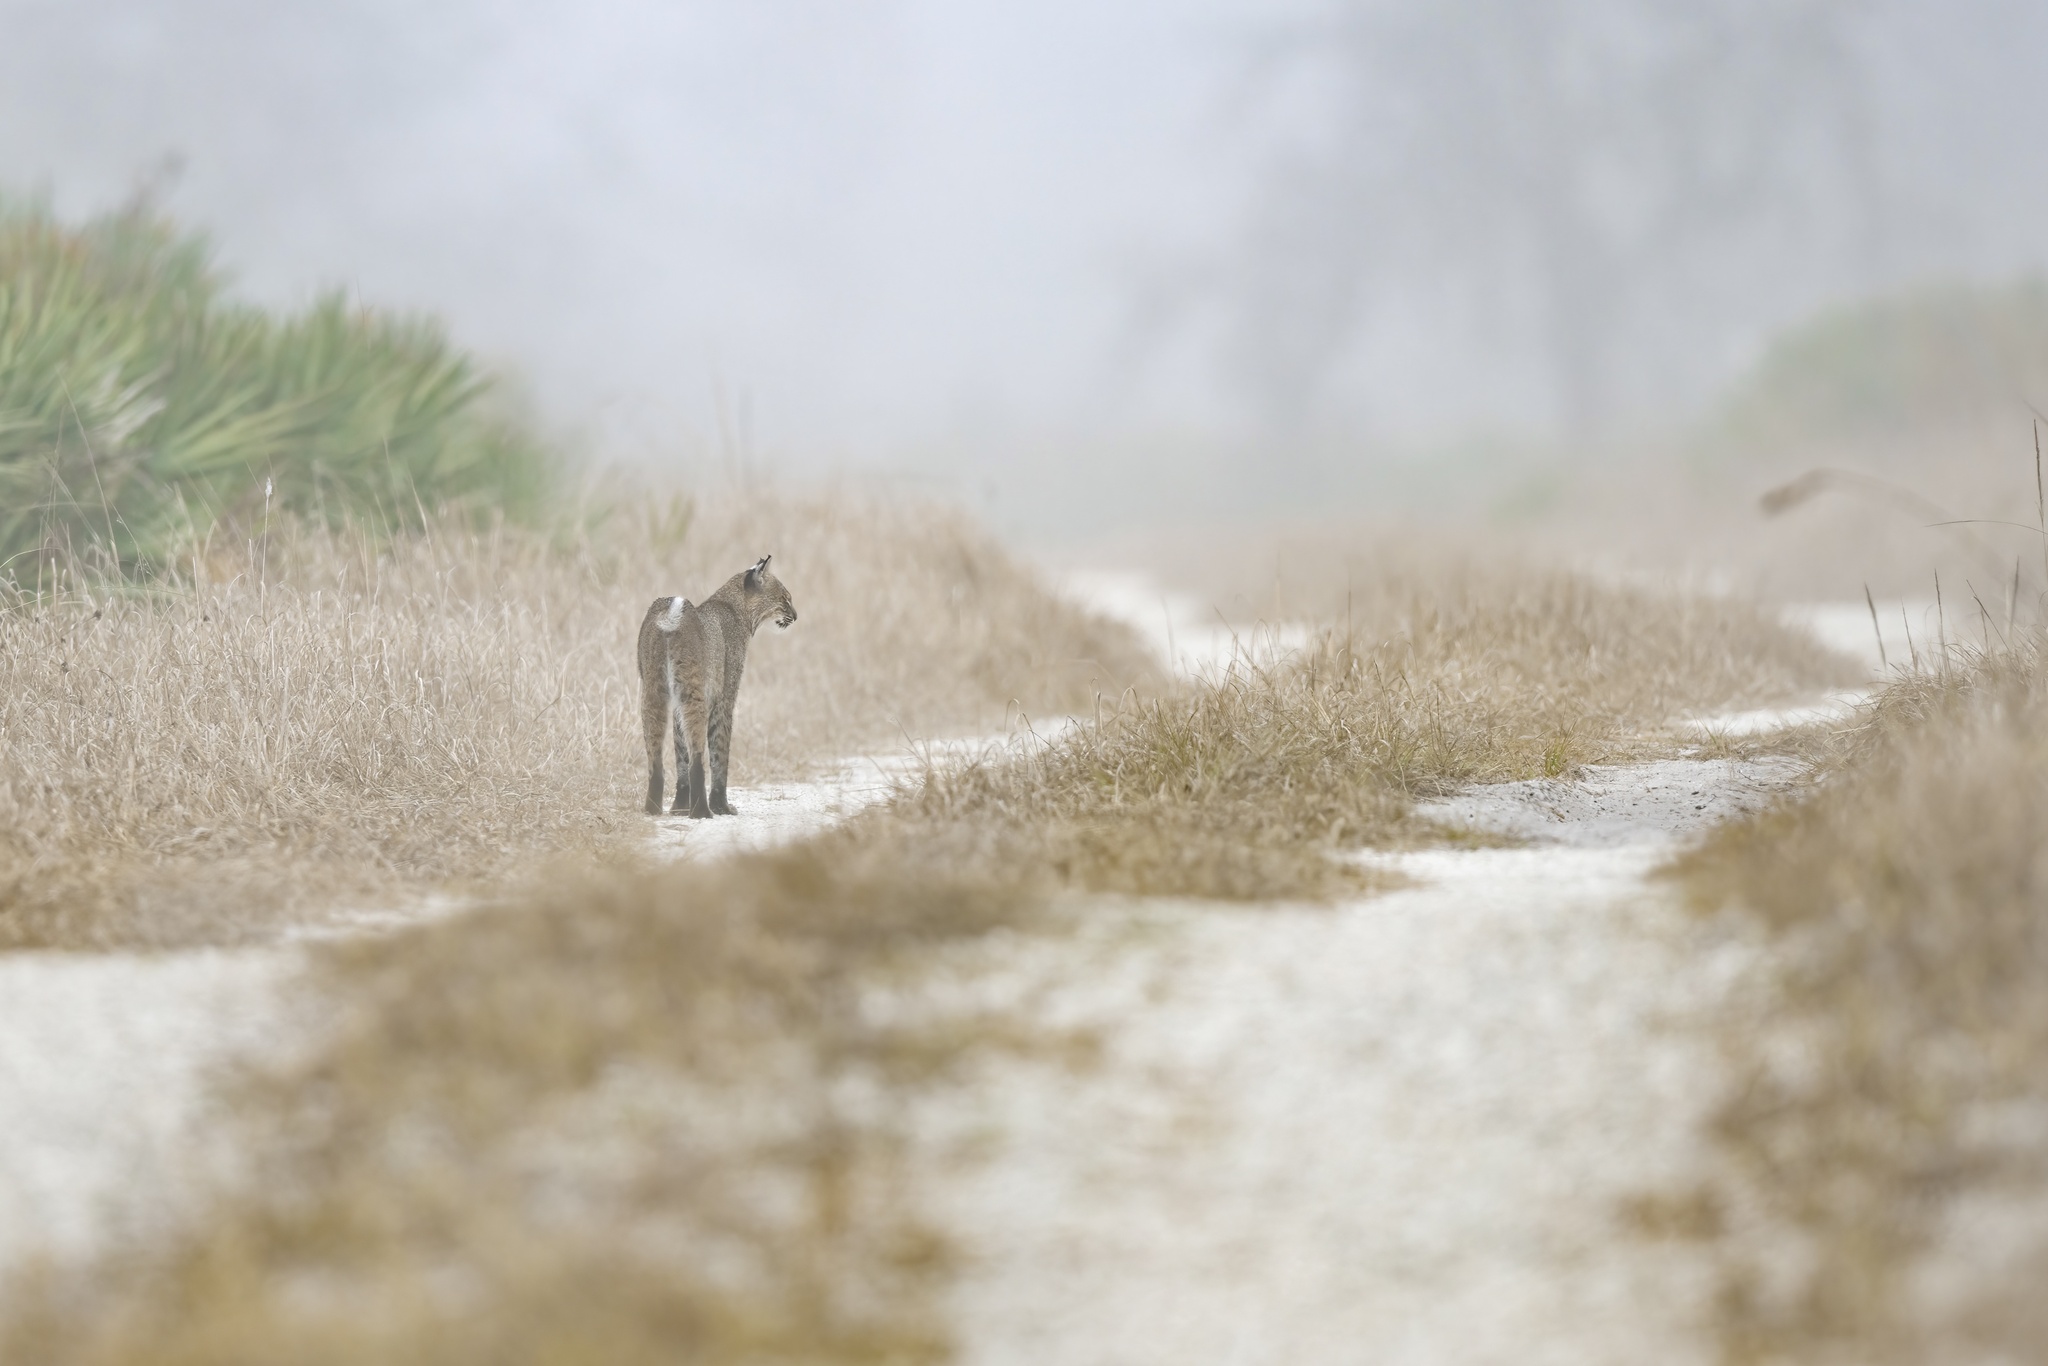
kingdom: Animalia
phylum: Chordata
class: Mammalia
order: Carnivora
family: Felidae
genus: Lynx
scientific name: Lynx rufus
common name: Bobcat
